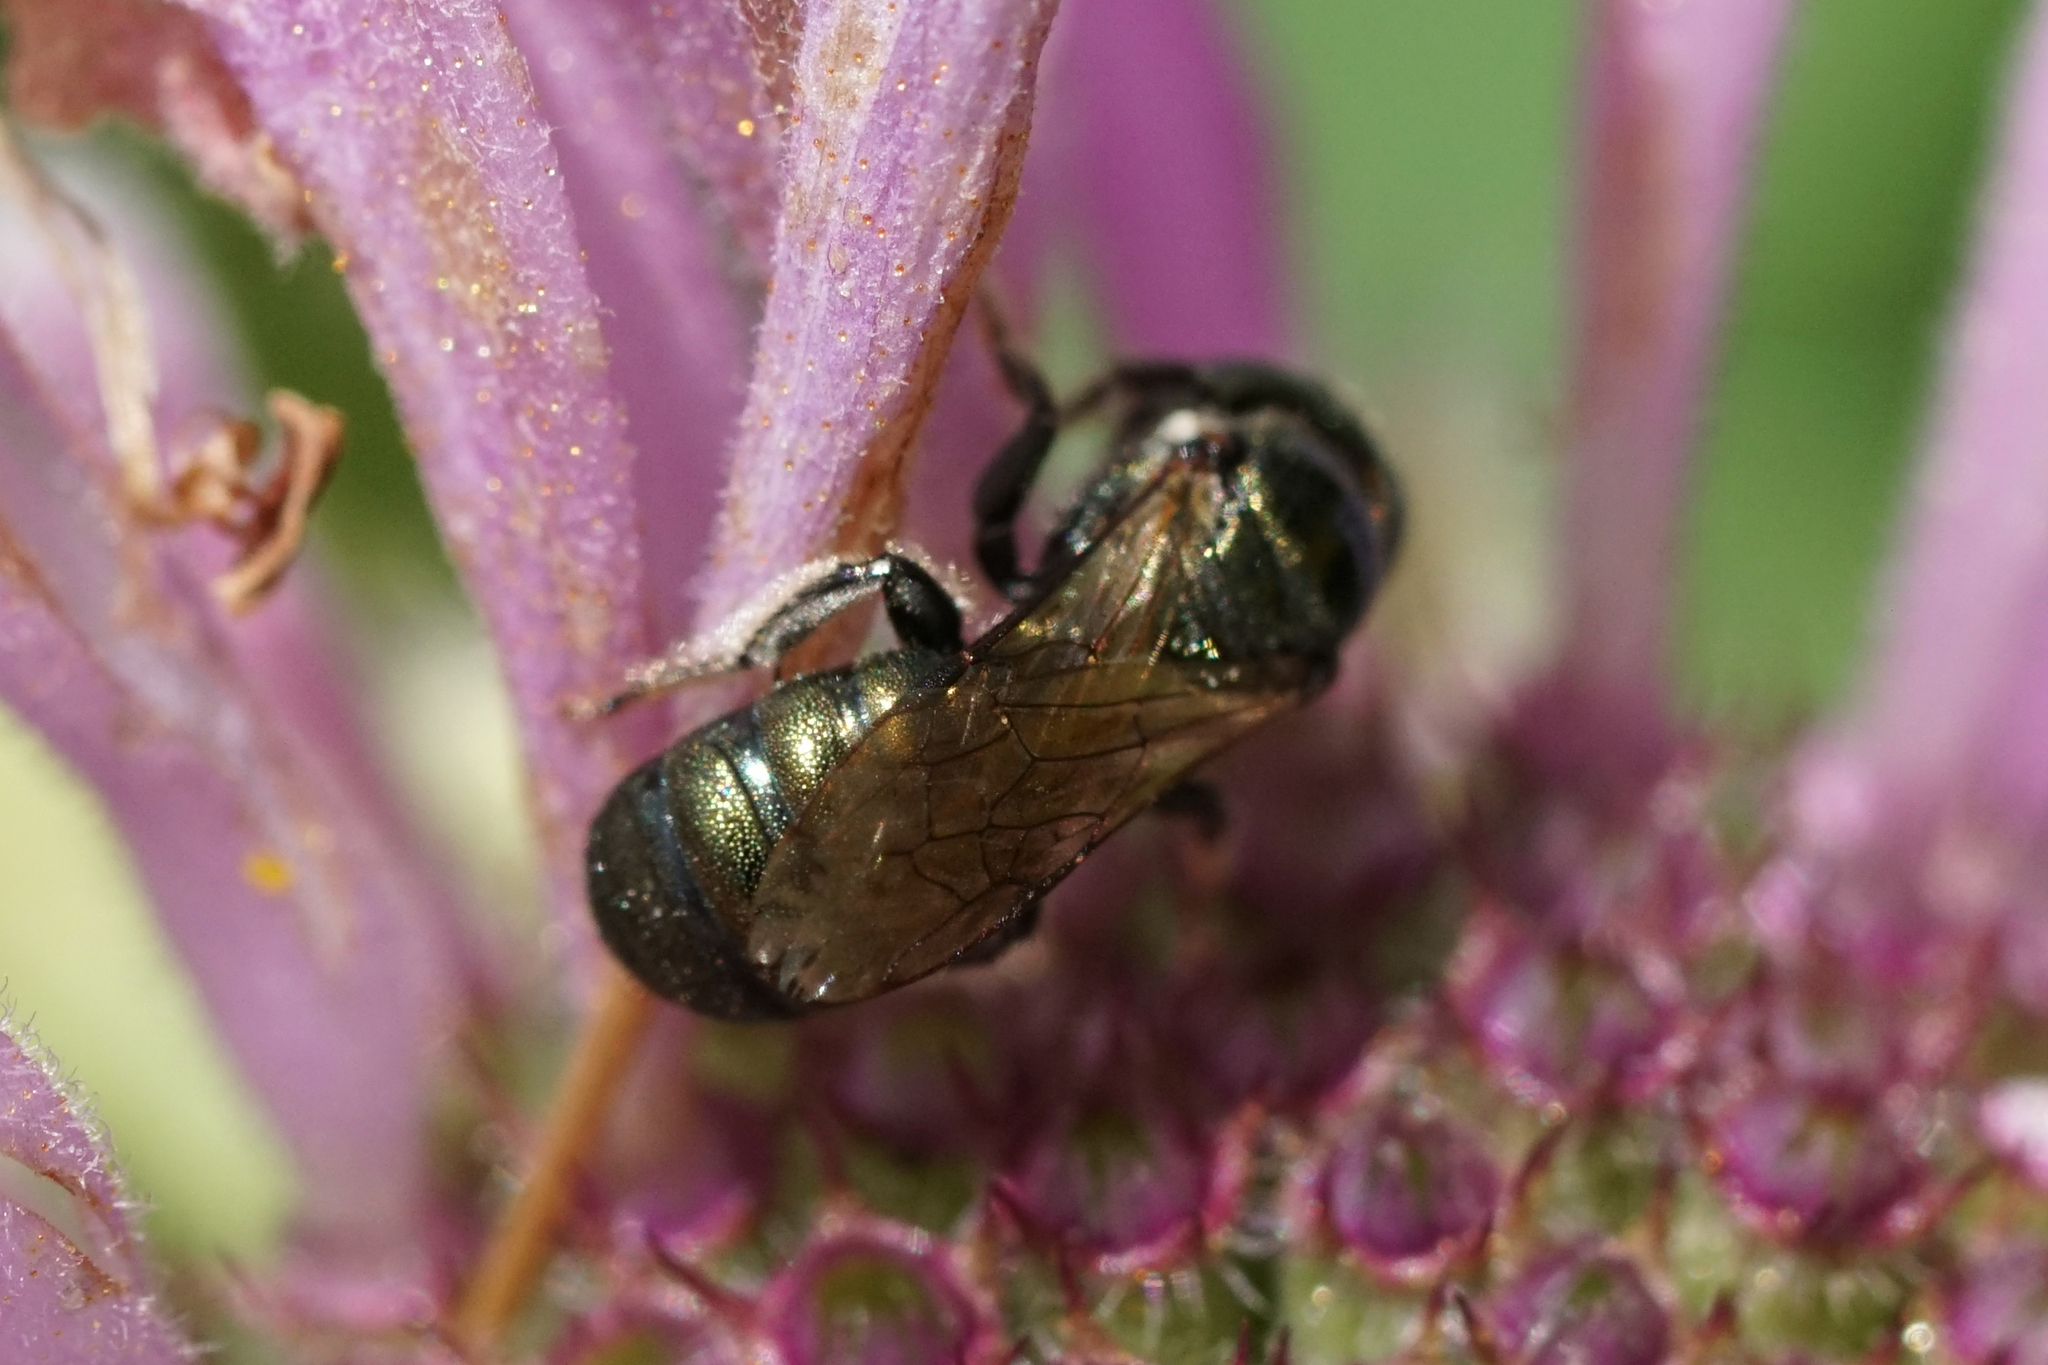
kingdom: Animalia
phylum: Arthropoda
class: Insecta
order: Hymenoptera
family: Apidae
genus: Zadontomerus
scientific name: Zadontomerus
